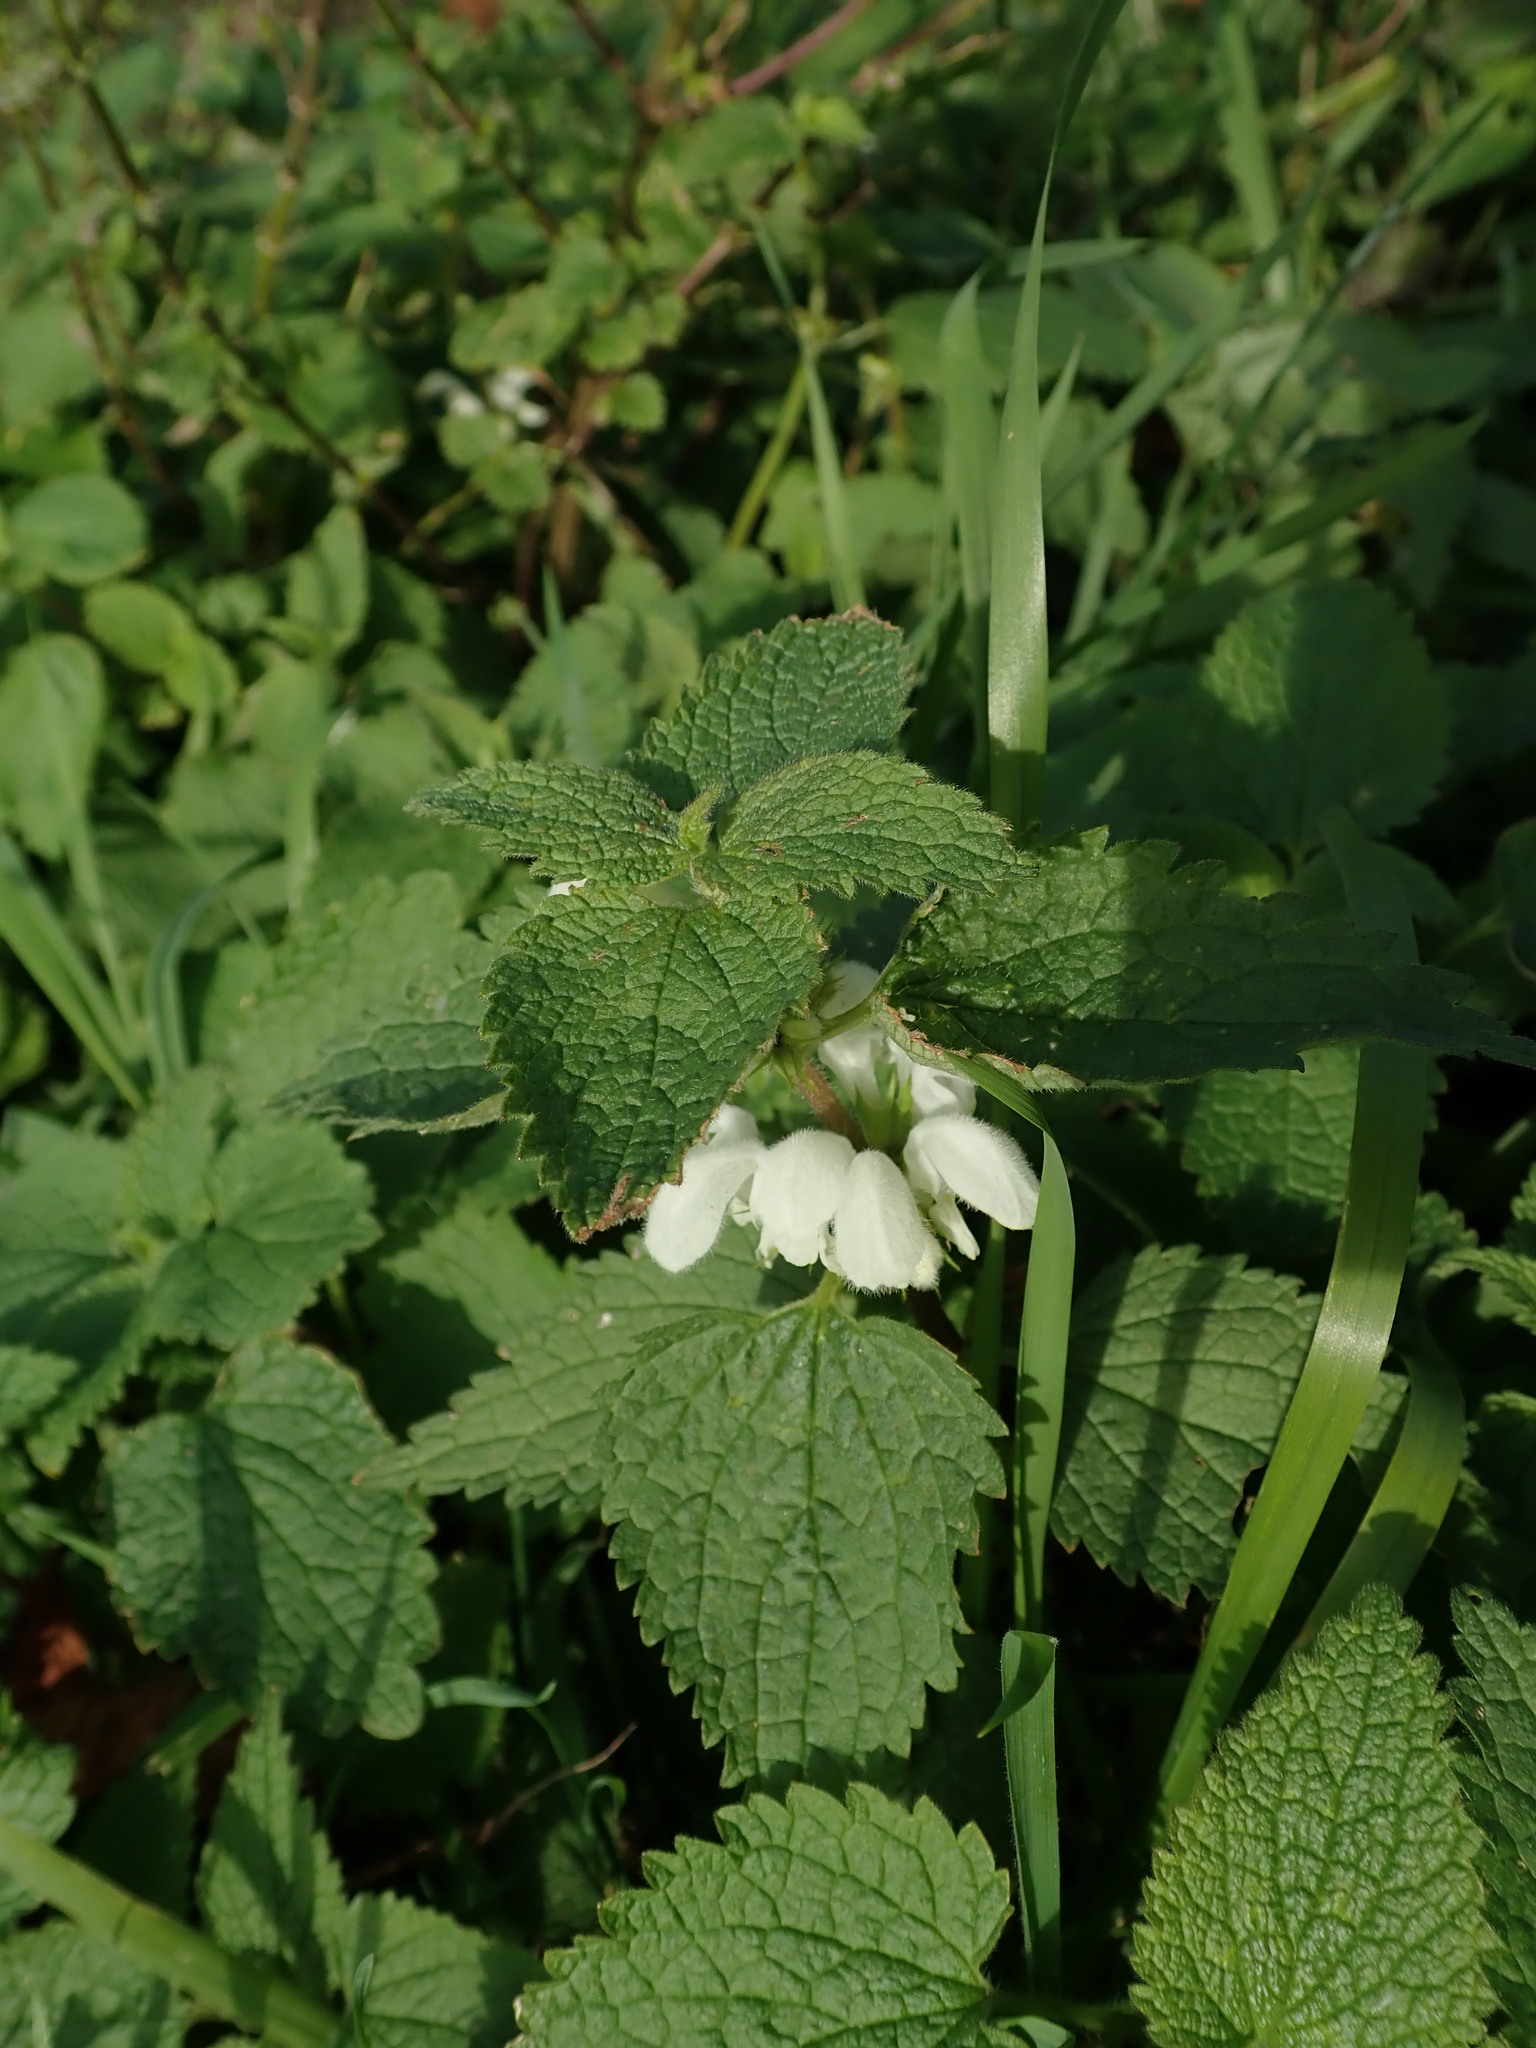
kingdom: Plantae
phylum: Tracheophyta
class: Magnoliopsida
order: Lamiales
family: Lamiaceae
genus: Lamium
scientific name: Lamium album
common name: White dead-nettle
